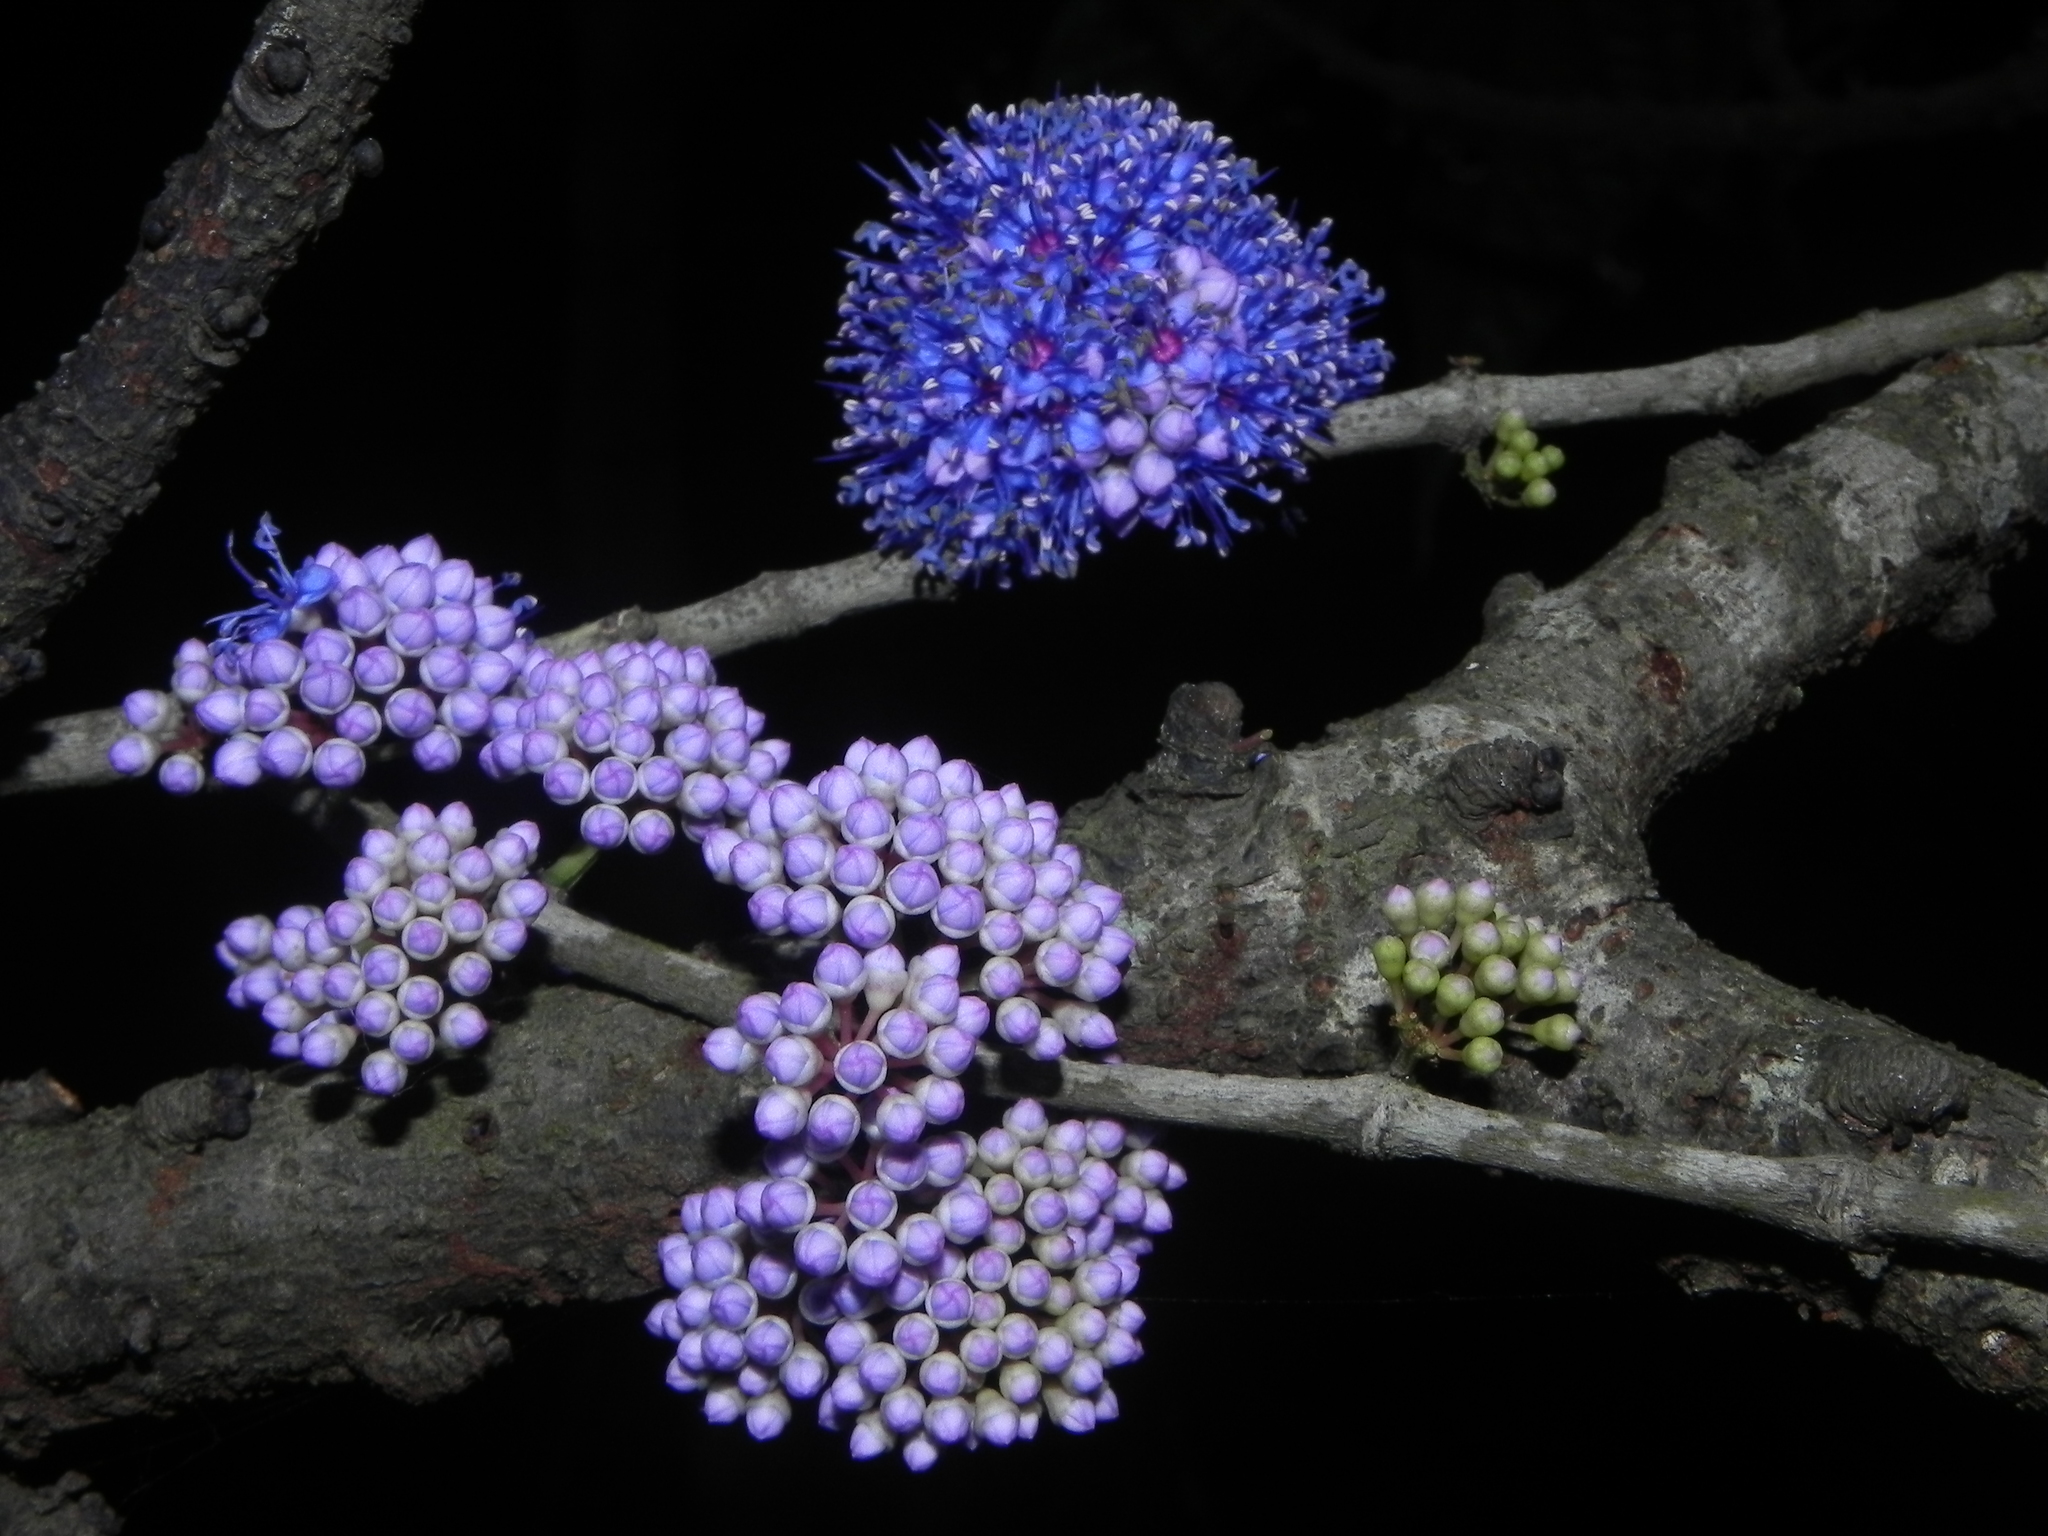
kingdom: Plantae
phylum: Tracheophyta
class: Magnoliopsida
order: Myrtales
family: Melastomataceae
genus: Memecylon
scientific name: Memecylon umbellatum
